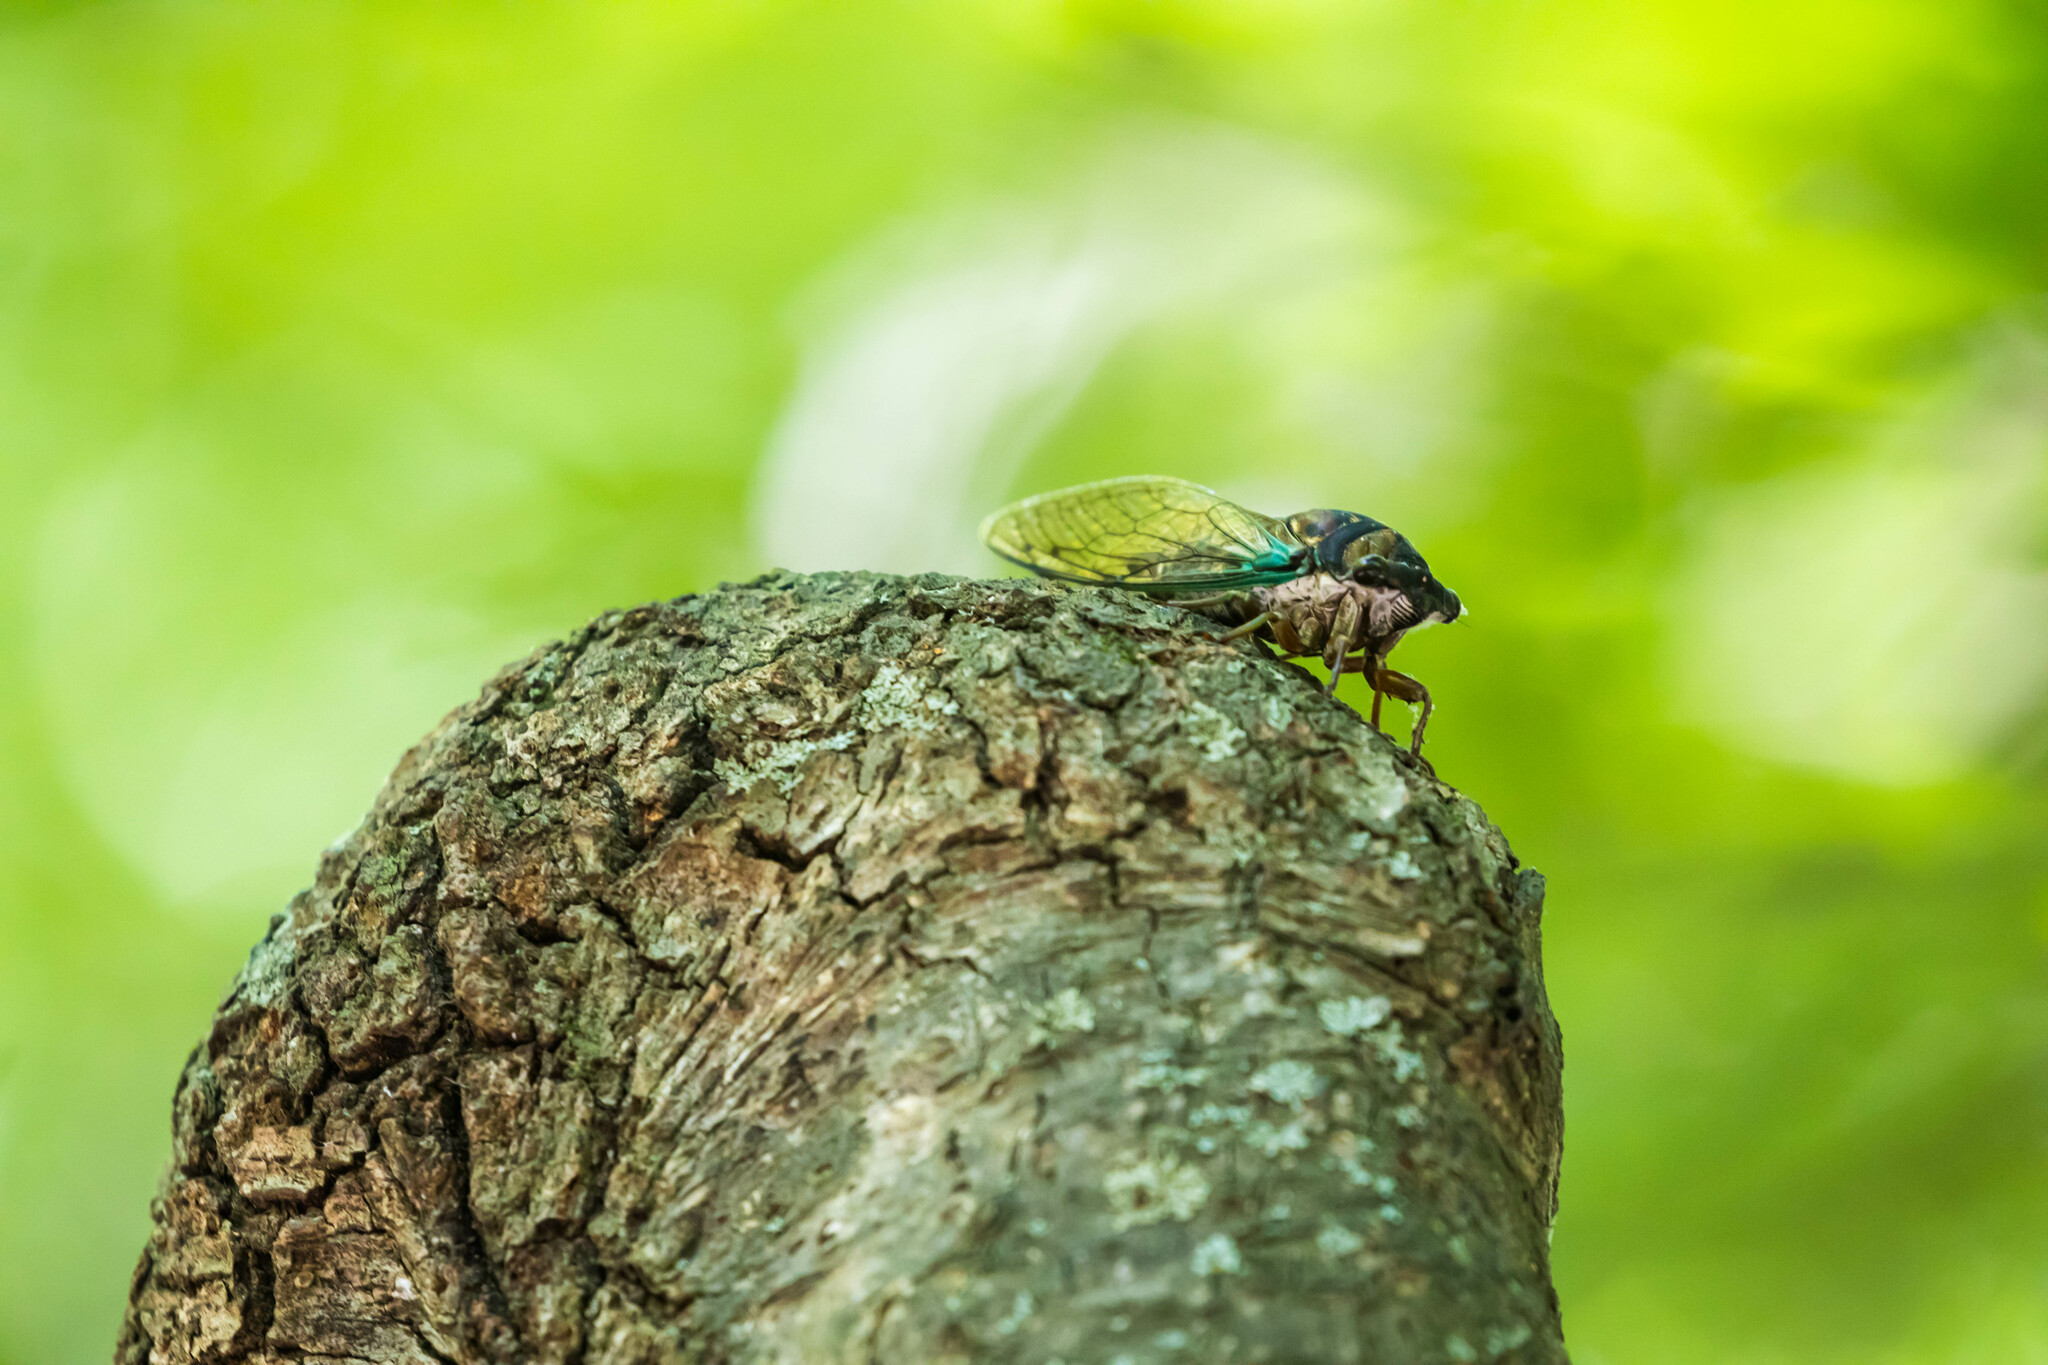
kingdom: Animalia
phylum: Arthropoda
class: Insecta
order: Hemiptera
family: Cicadidae
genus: Neotibicen
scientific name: Neotibicen lyricen
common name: Lyric cicada
